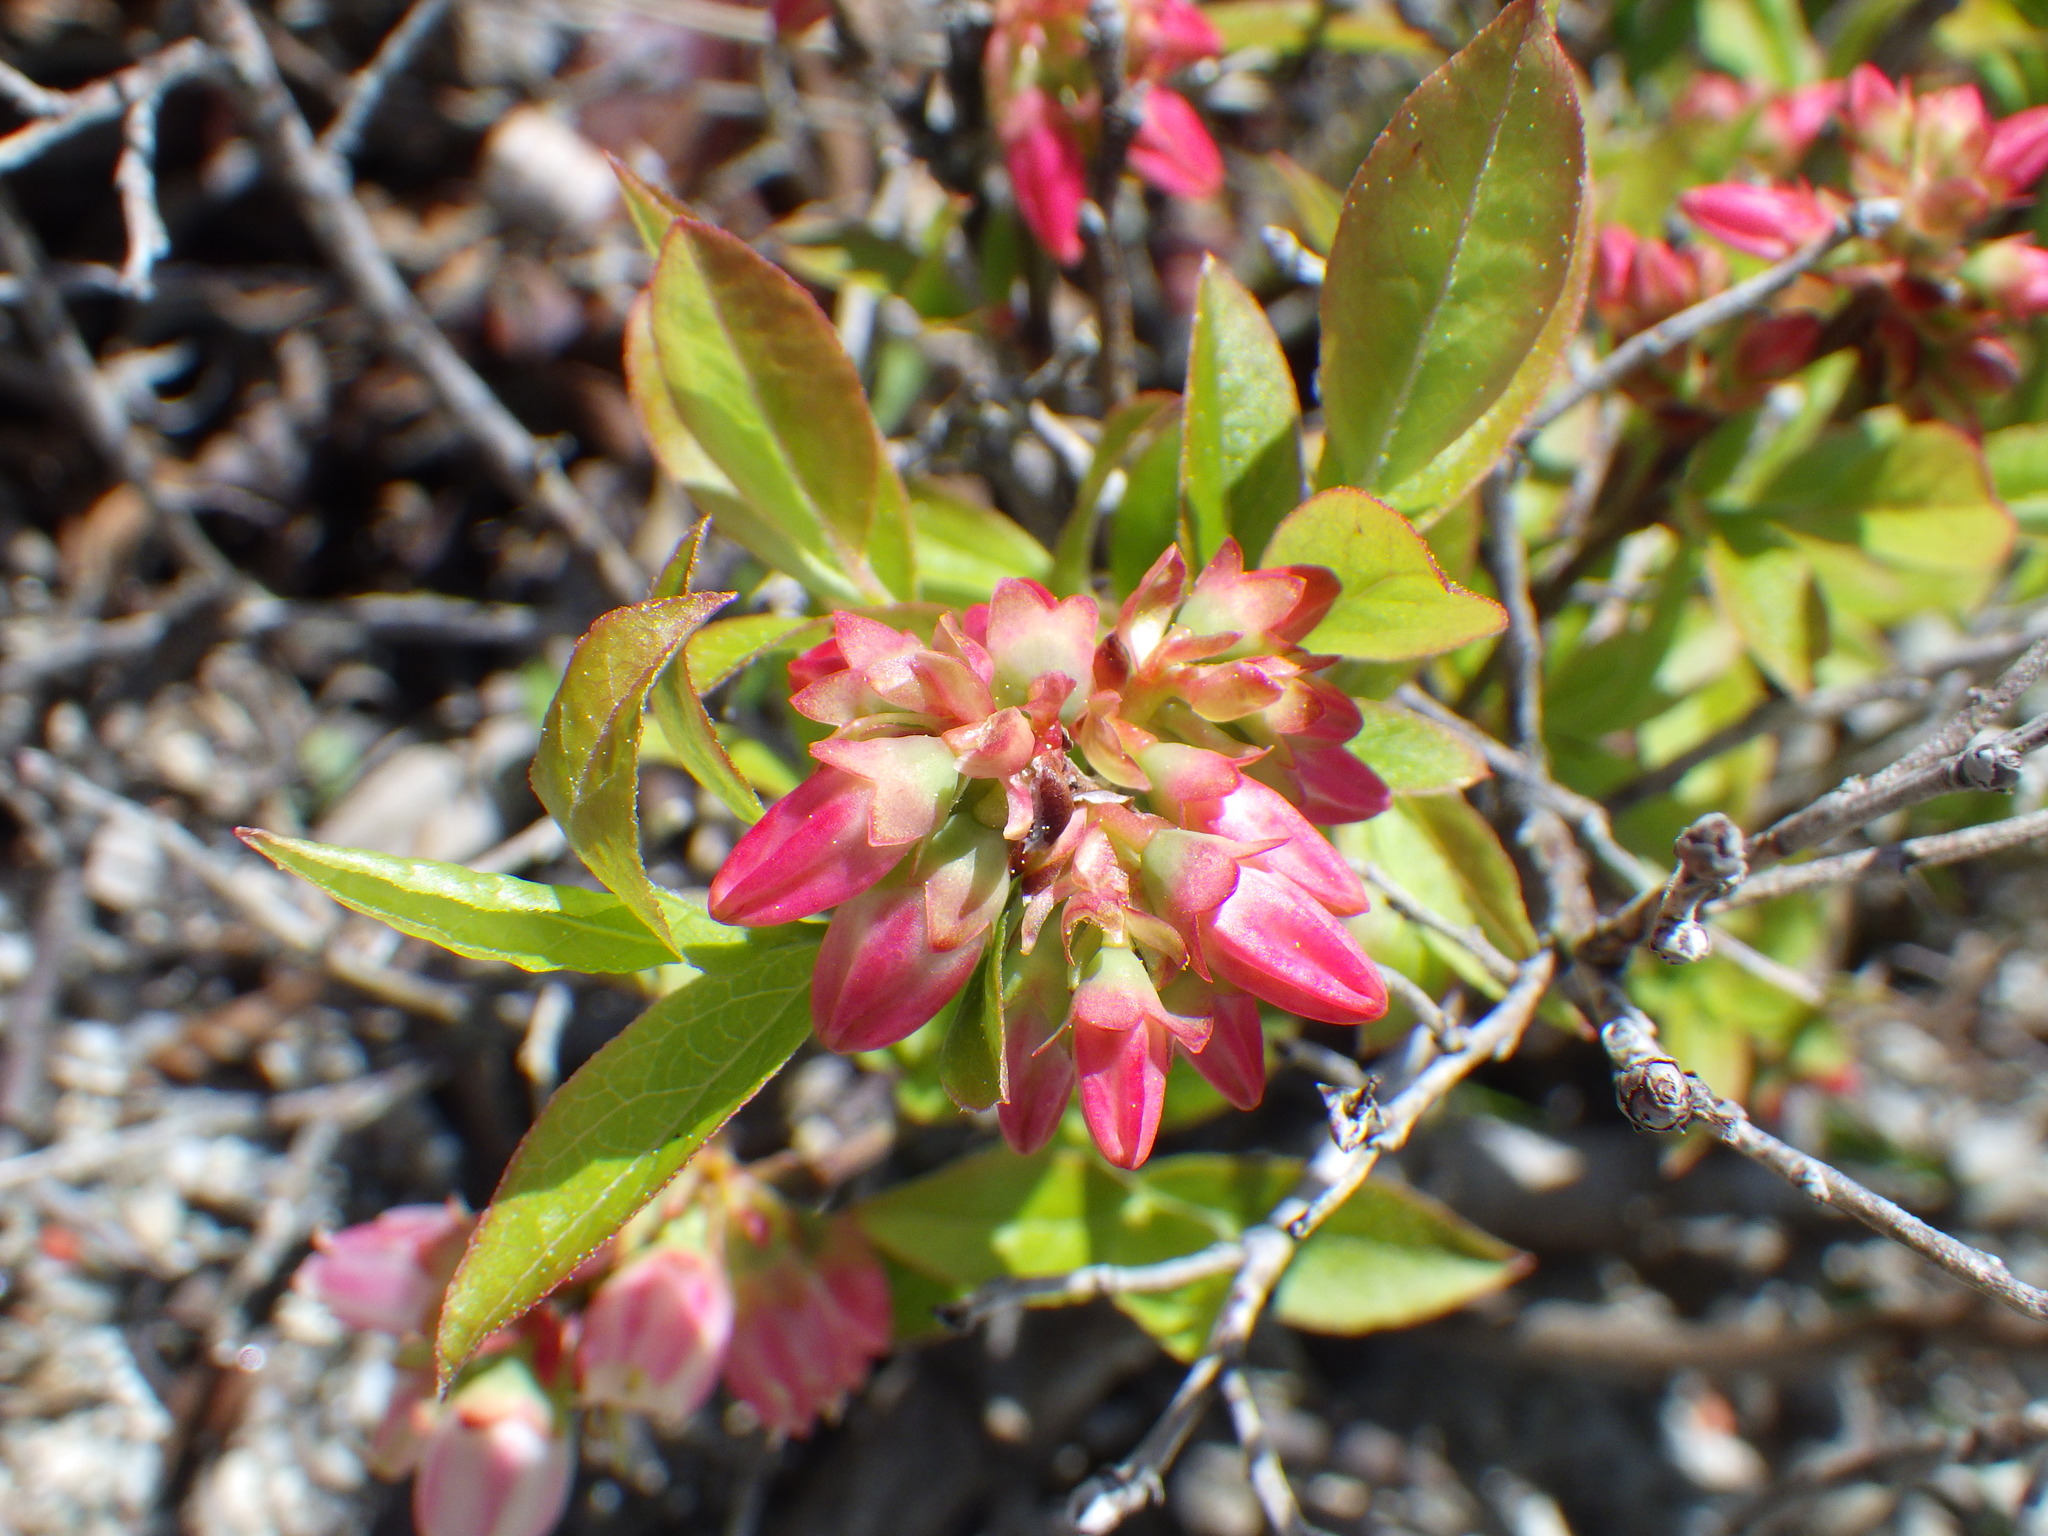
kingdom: Plantae
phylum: Tracheophyta
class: Magnoliopsida
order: Ericales
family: Ericaceae
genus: Vaccinium
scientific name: Vaccinium angustifolium
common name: Early lowbush blueberry
